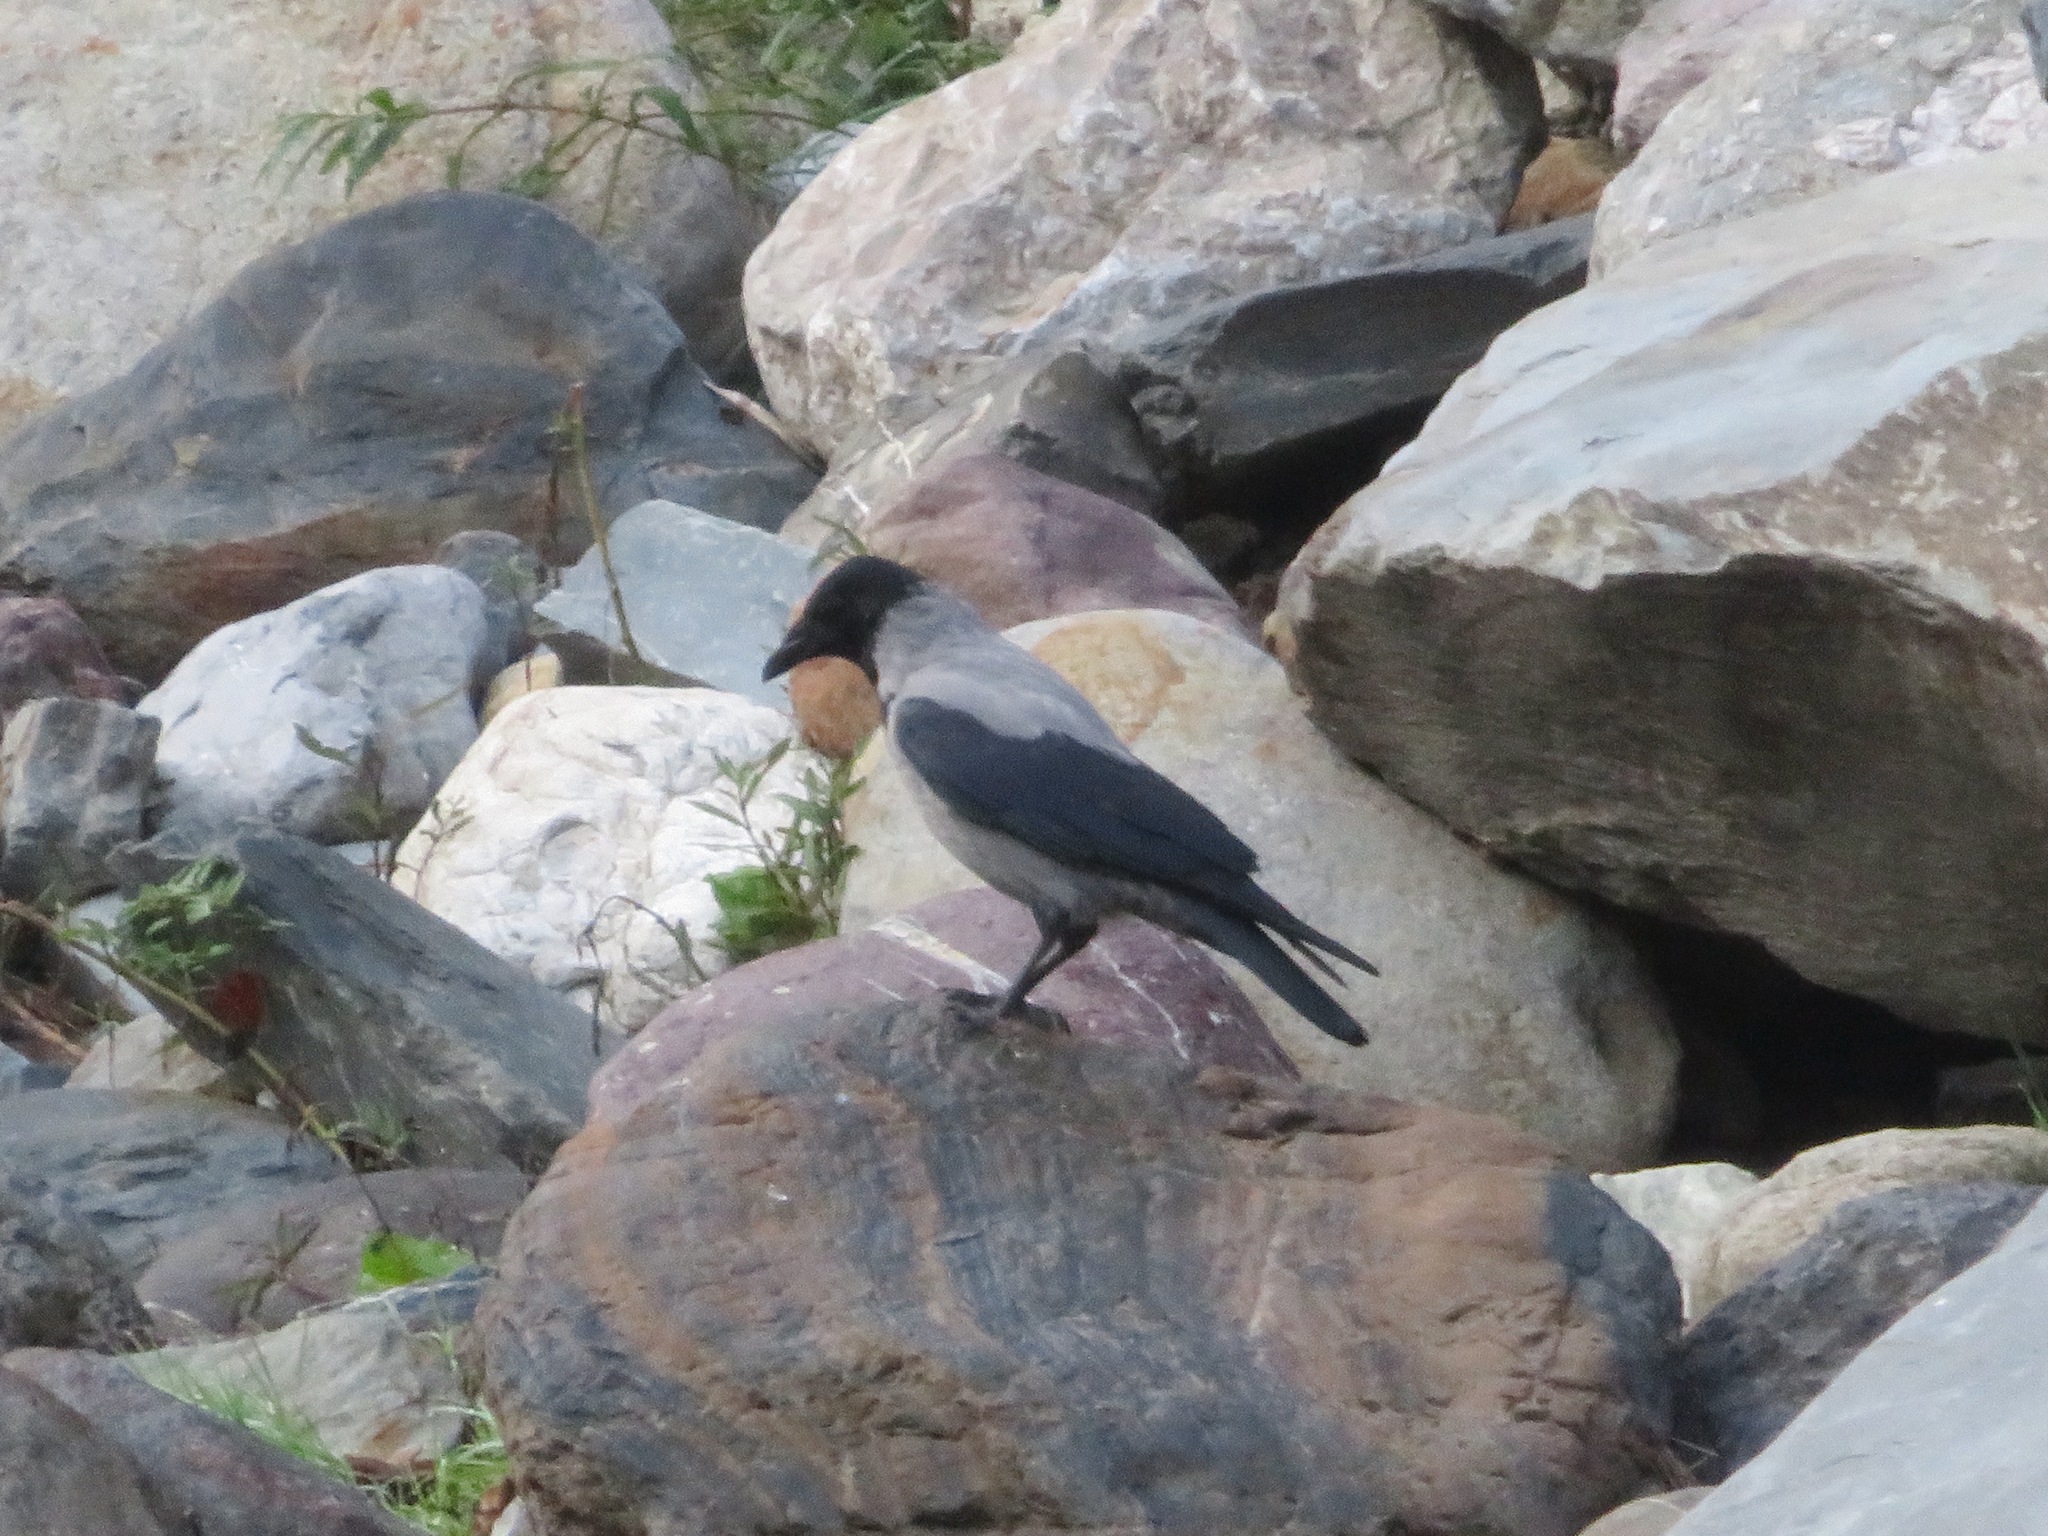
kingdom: Animalia
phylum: Chordata
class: Aves
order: Passeriformes
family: Corvidae
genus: Corvus
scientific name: Corvus cornix
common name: Hooded crow
